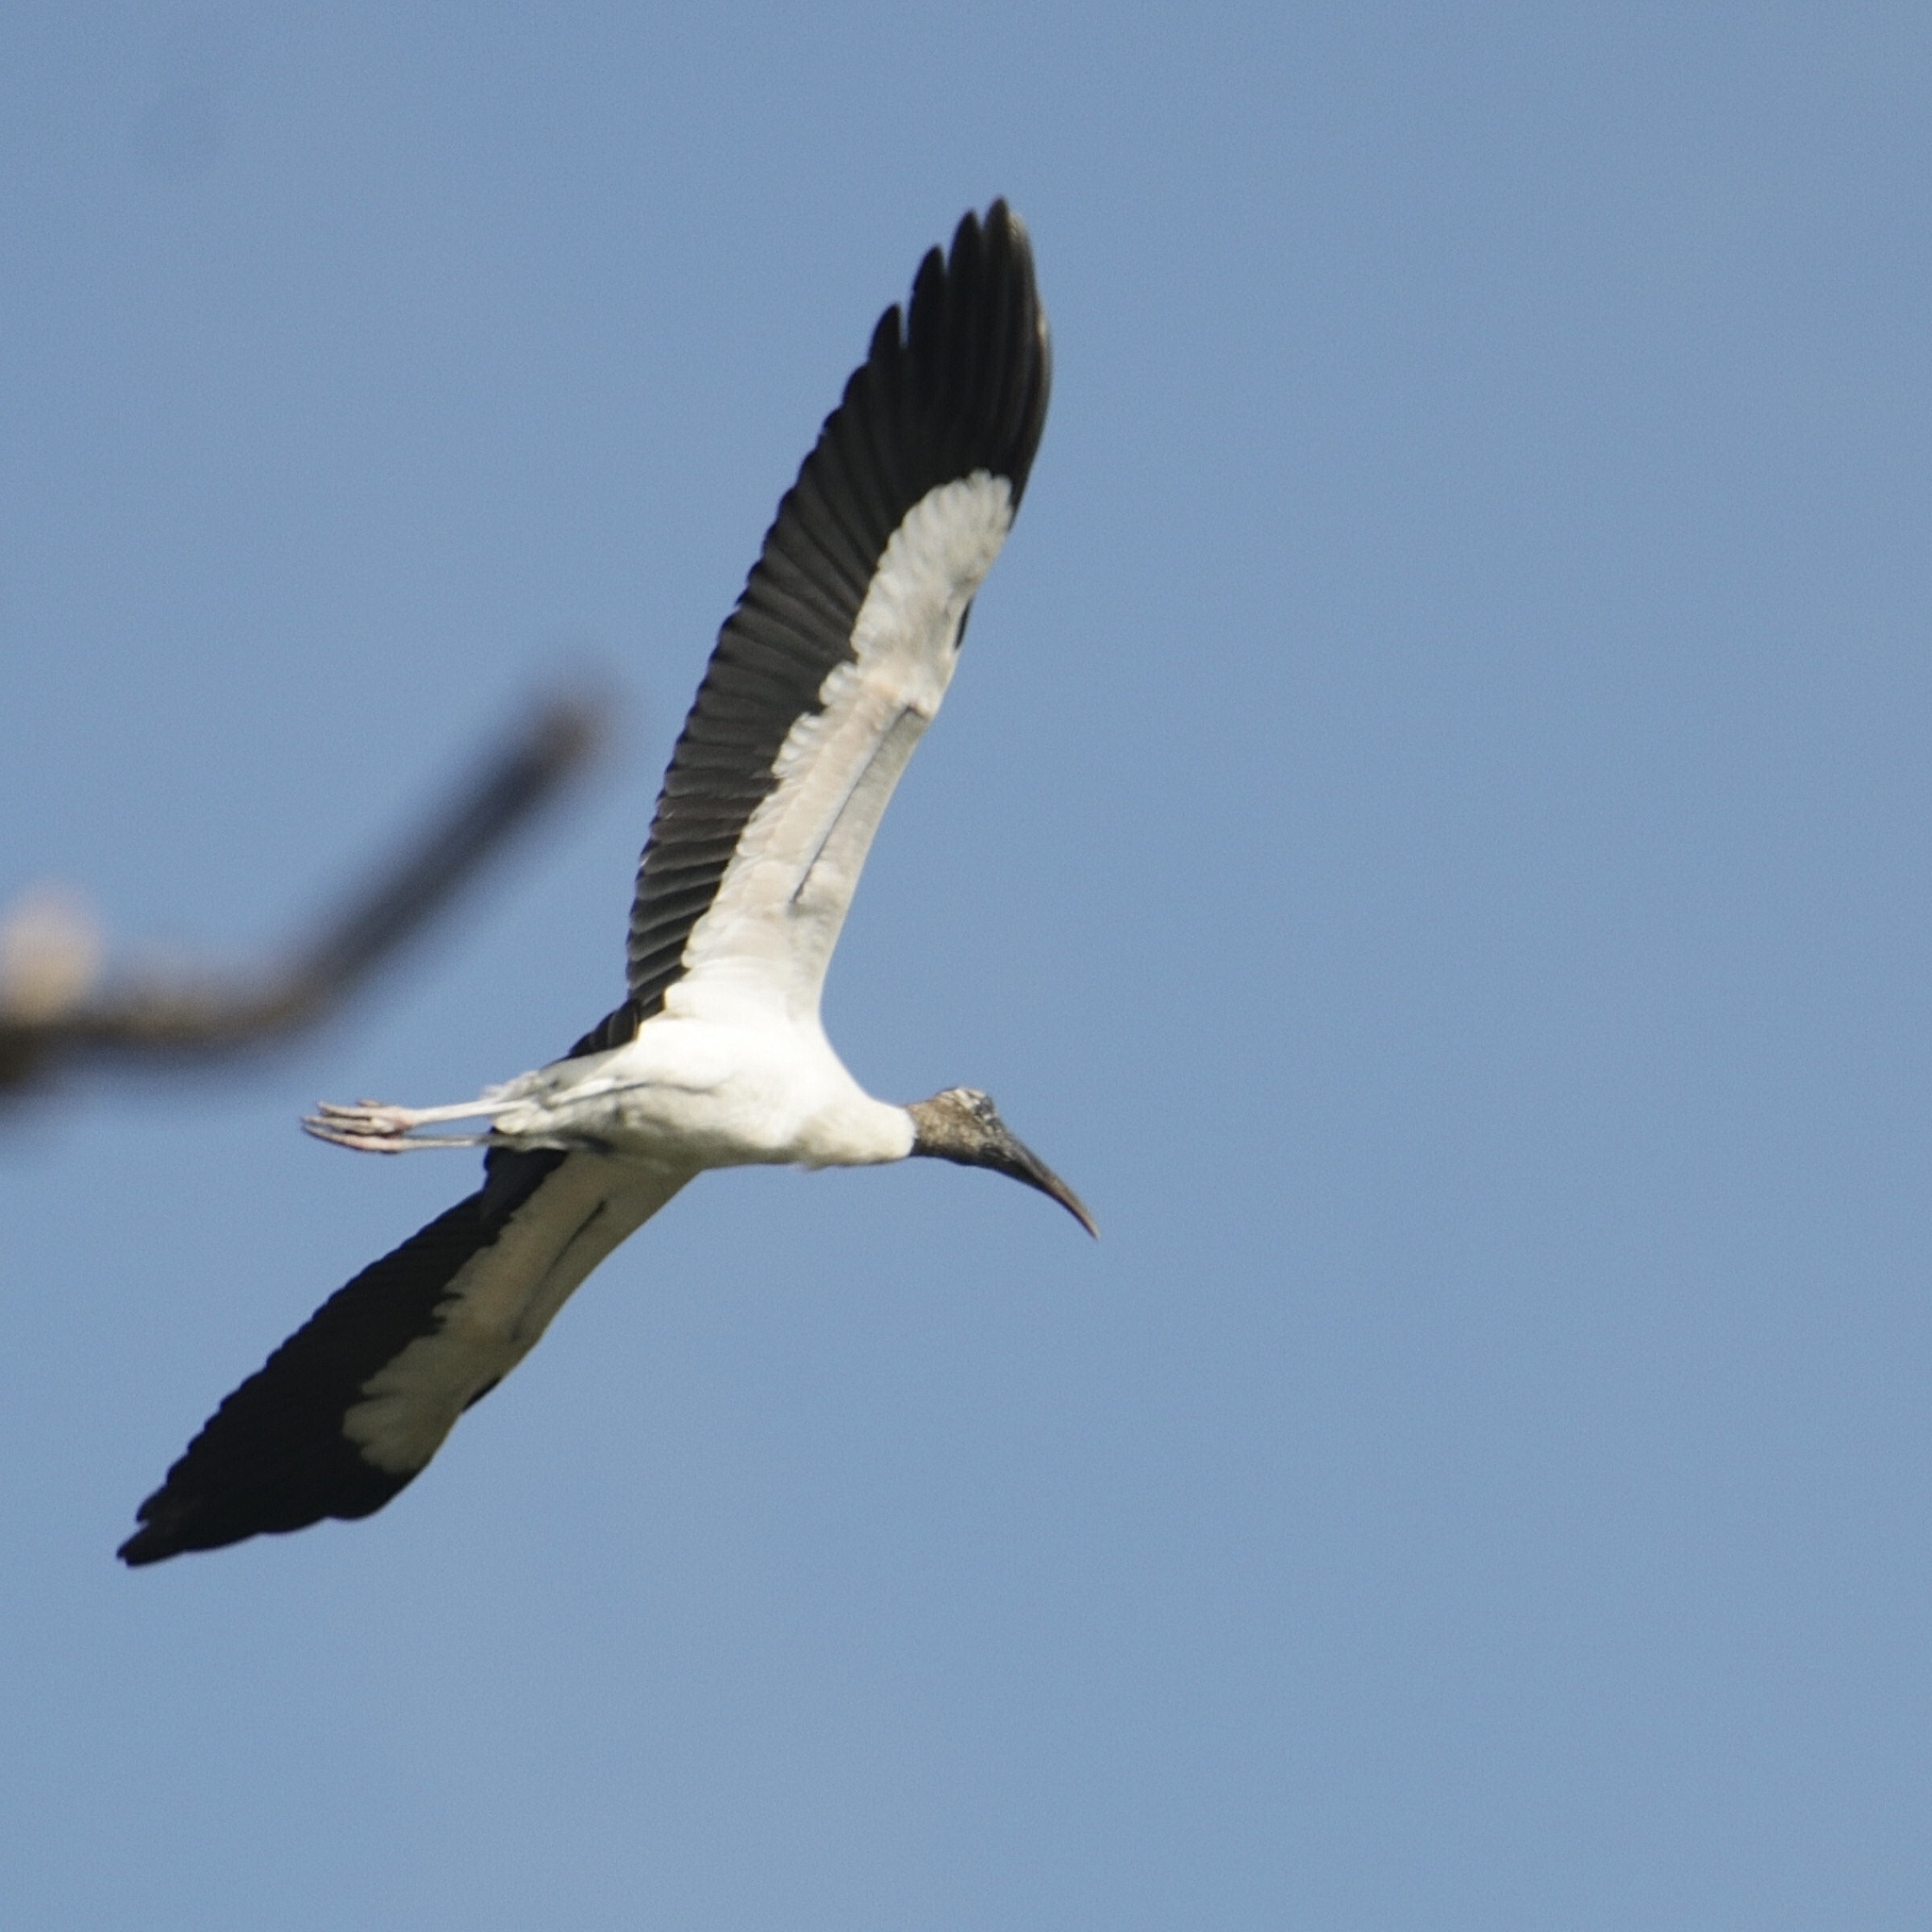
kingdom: Animalia
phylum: Chordata
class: Aves
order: Ciconiiformes
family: Ciconiidae
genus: Mycteria
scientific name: Mycteria americana
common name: Wood stork
